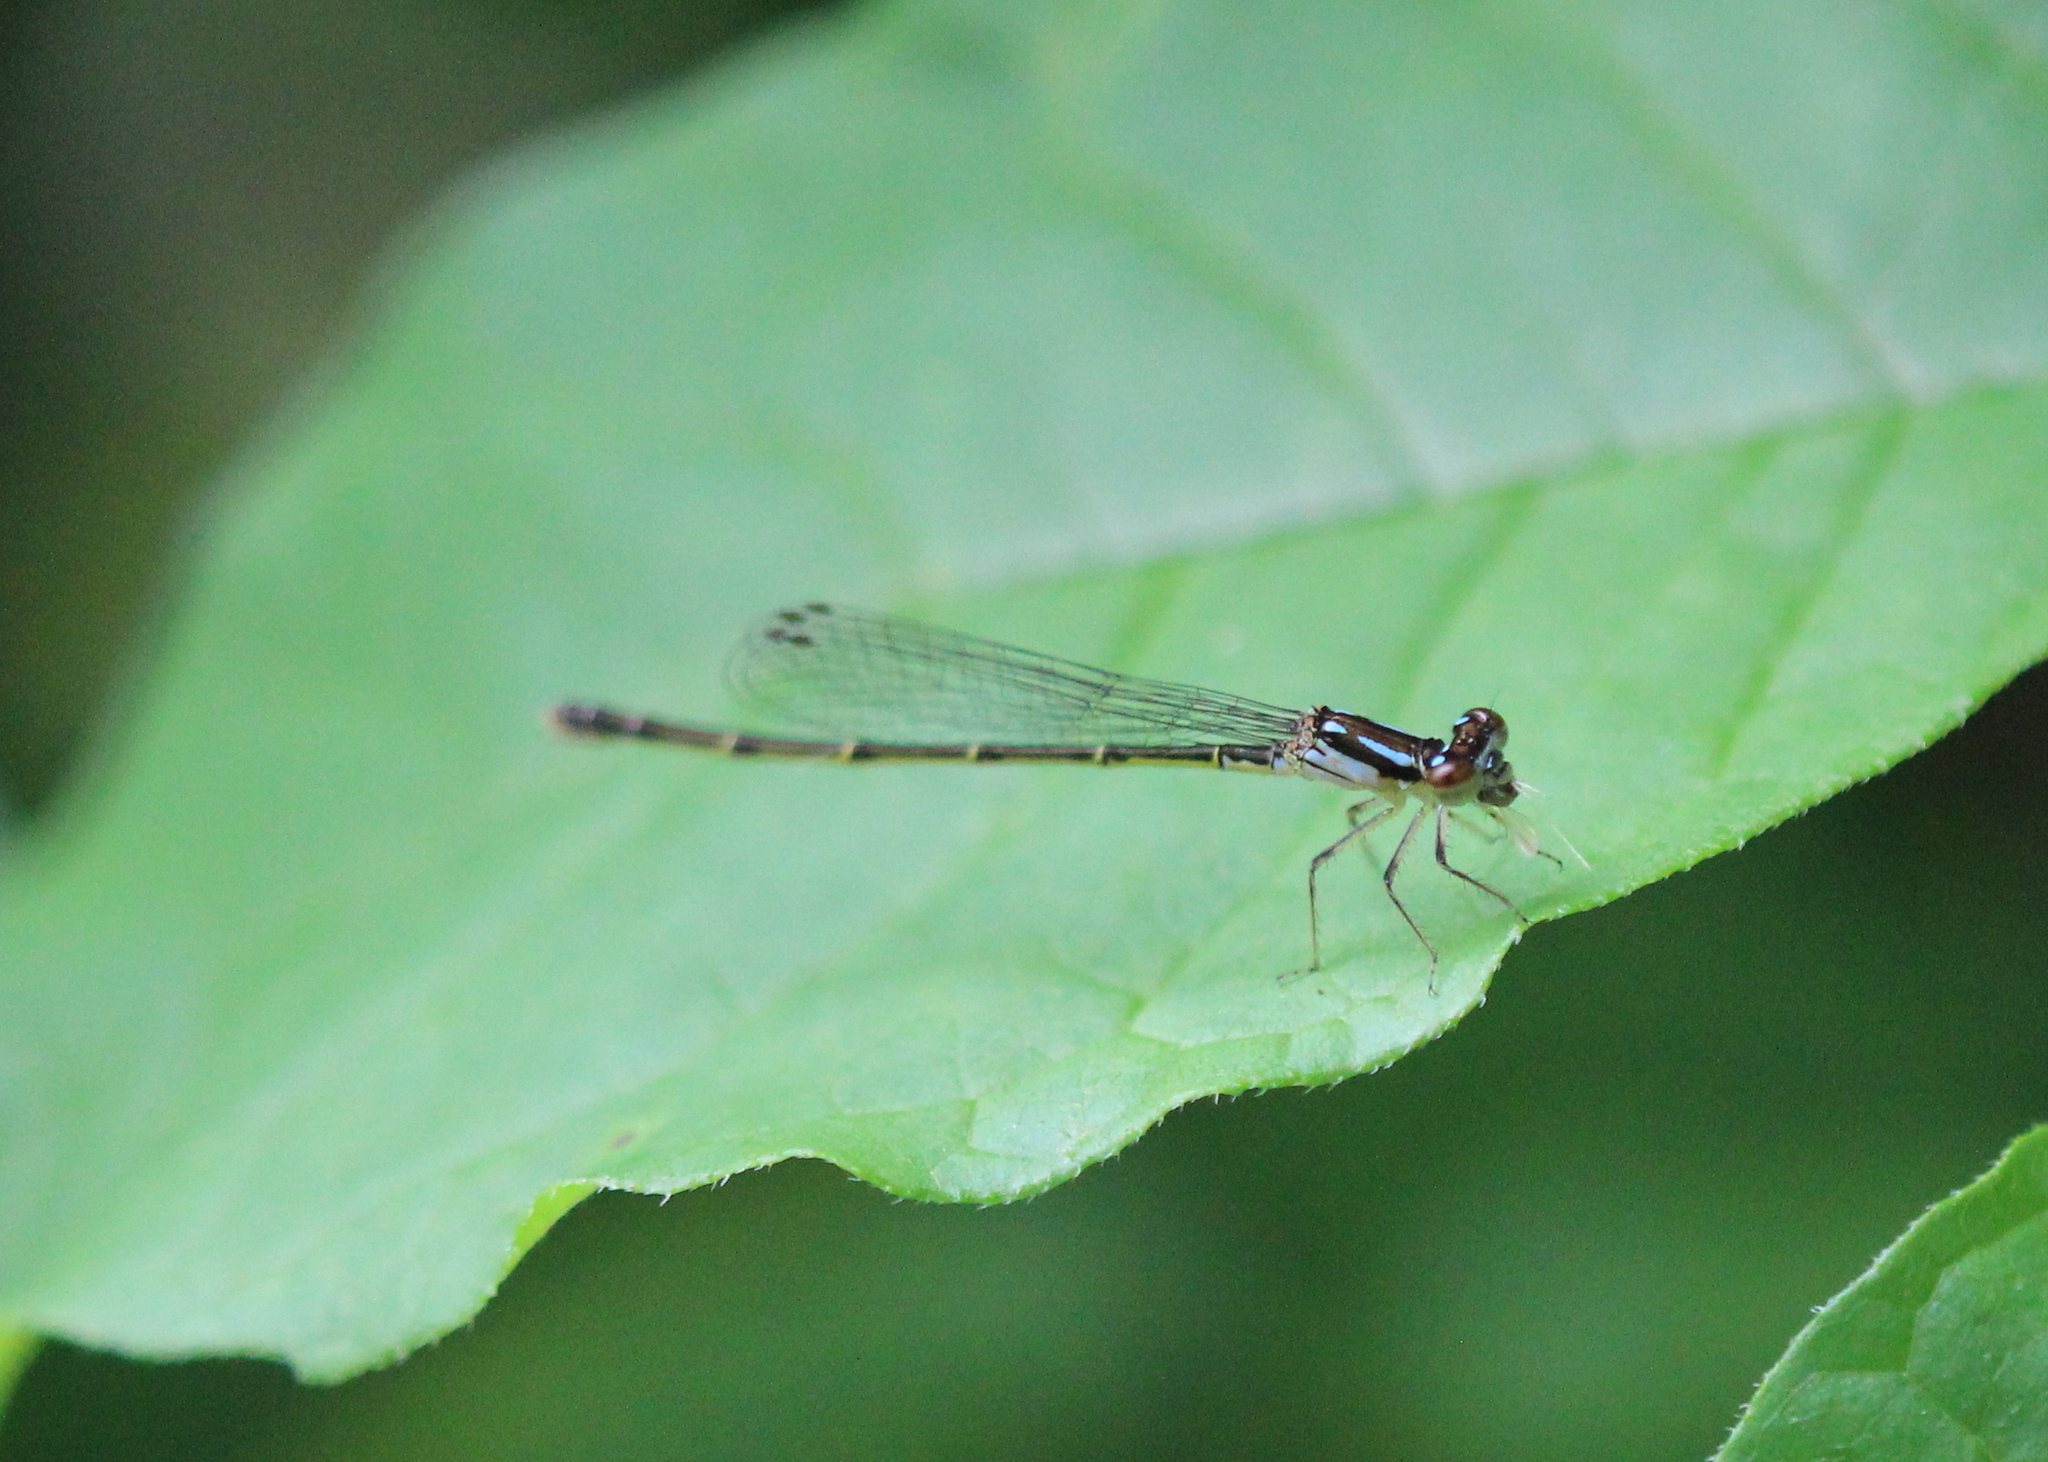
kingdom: Animalia
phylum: Arthropoda
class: Insecta
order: Odonata
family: Coenagrionidae
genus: Ischnura
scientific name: Ischnura posita
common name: Fragile forktail
